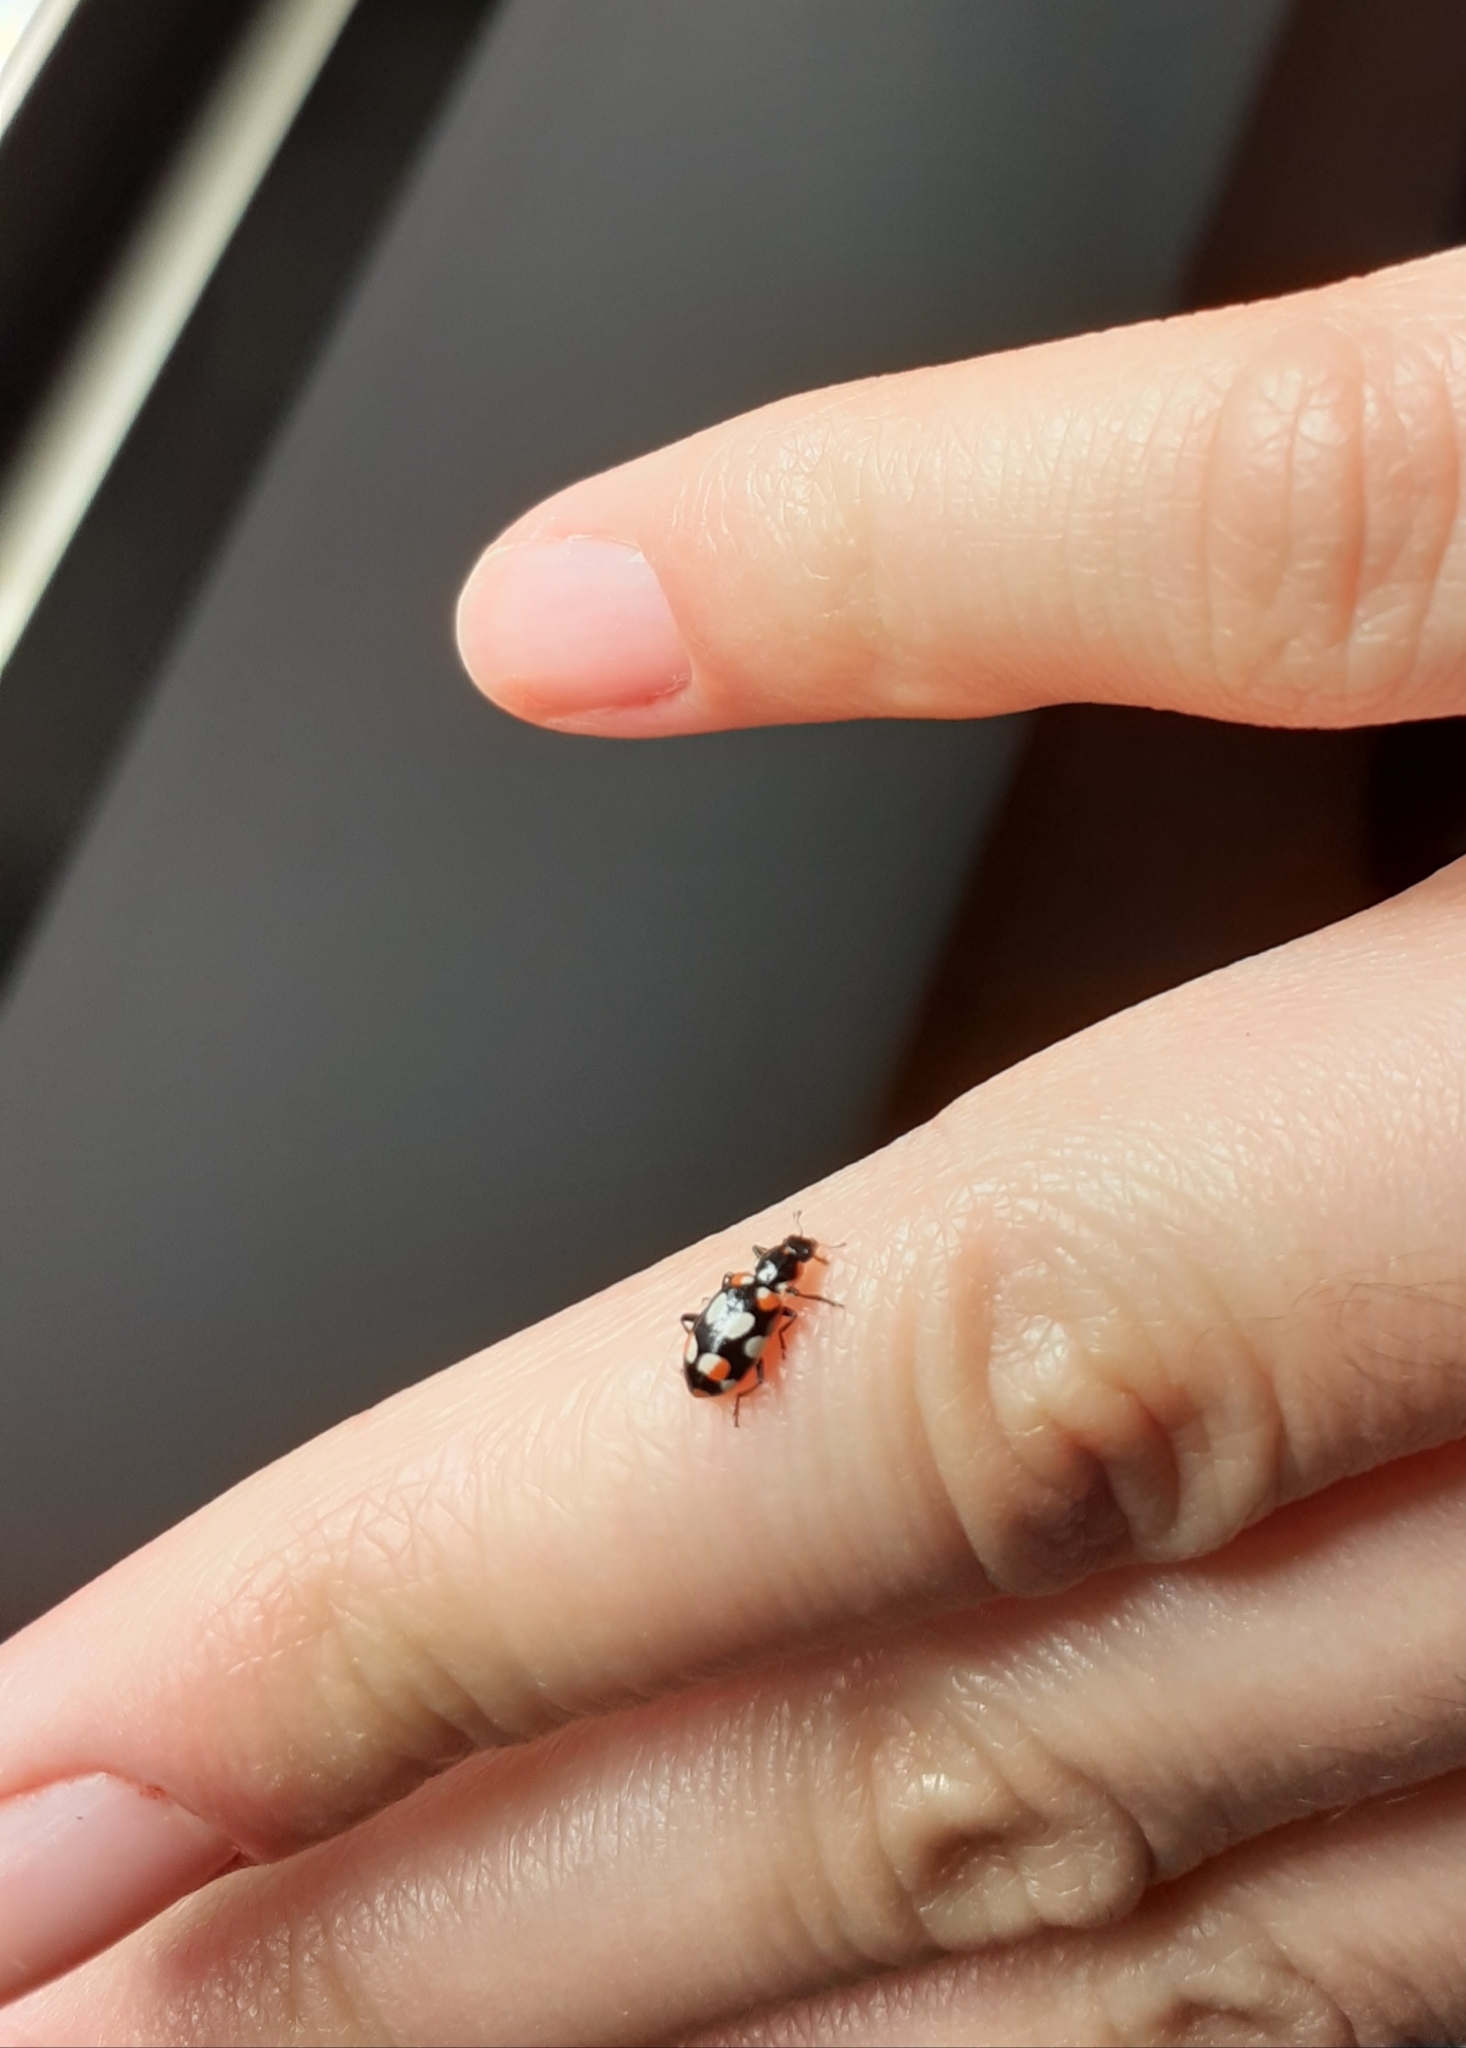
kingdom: Animalia
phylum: Arthropoda
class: Insecta
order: Coleoptera
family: Coccinellidae
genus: Eriopis
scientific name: Eriopis connexa
